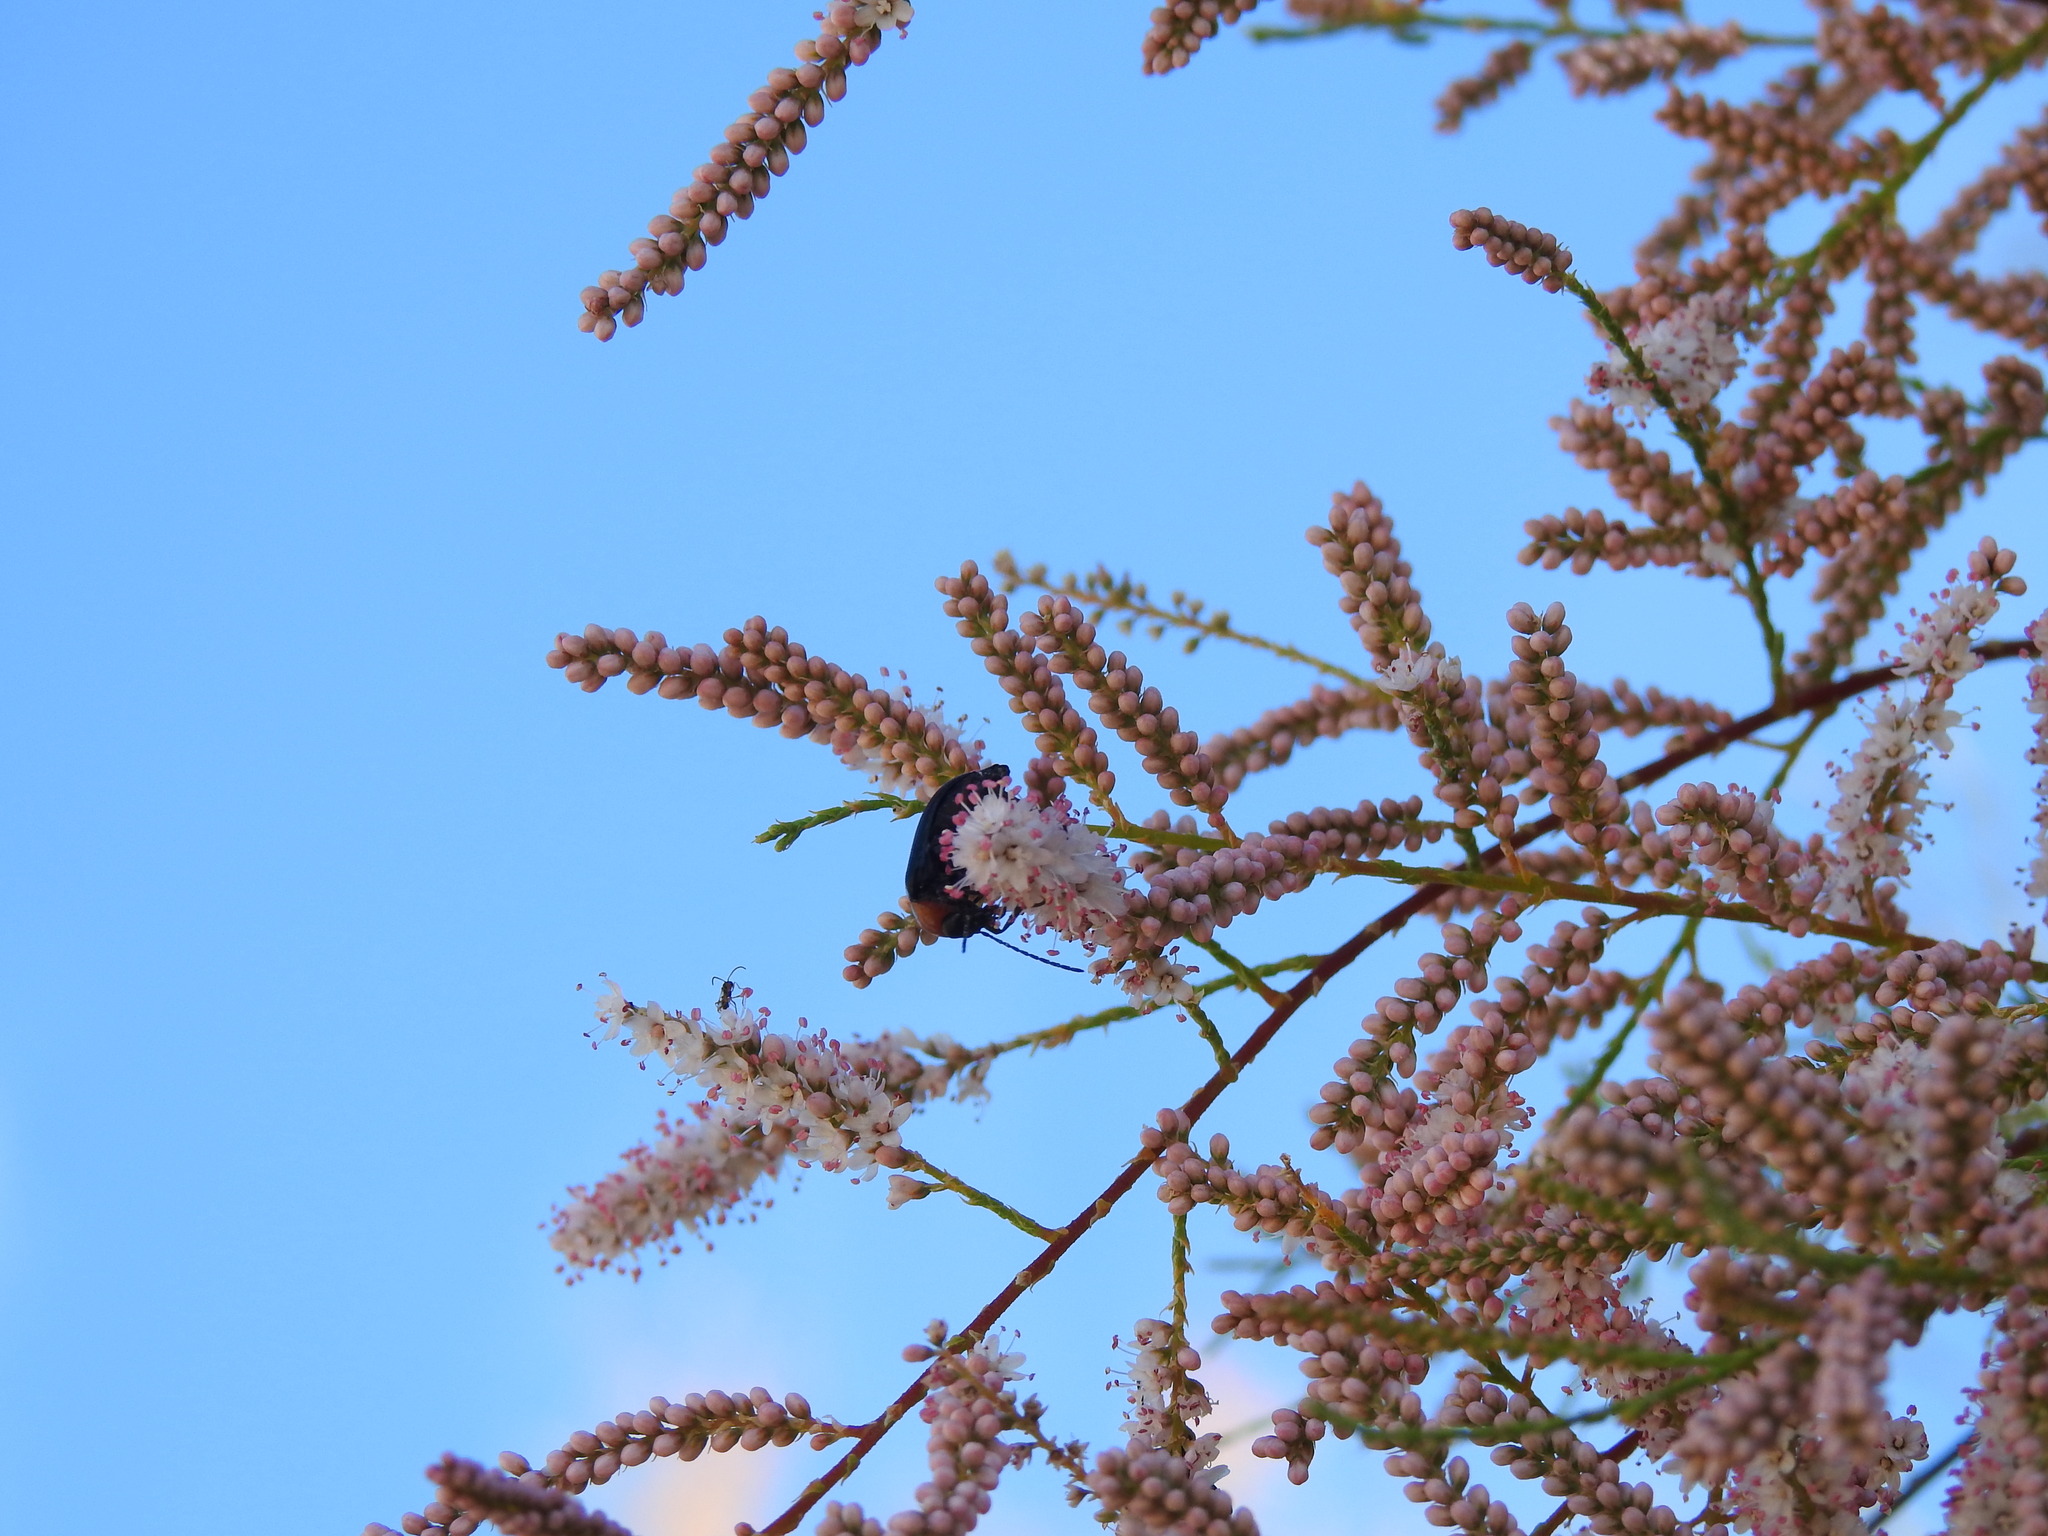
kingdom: Animalia
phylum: Arthropoda
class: Insecta
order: Coleoptera
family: Tenebrionidae
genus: Heliotaurus
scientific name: Heliotaurus ruficollis
